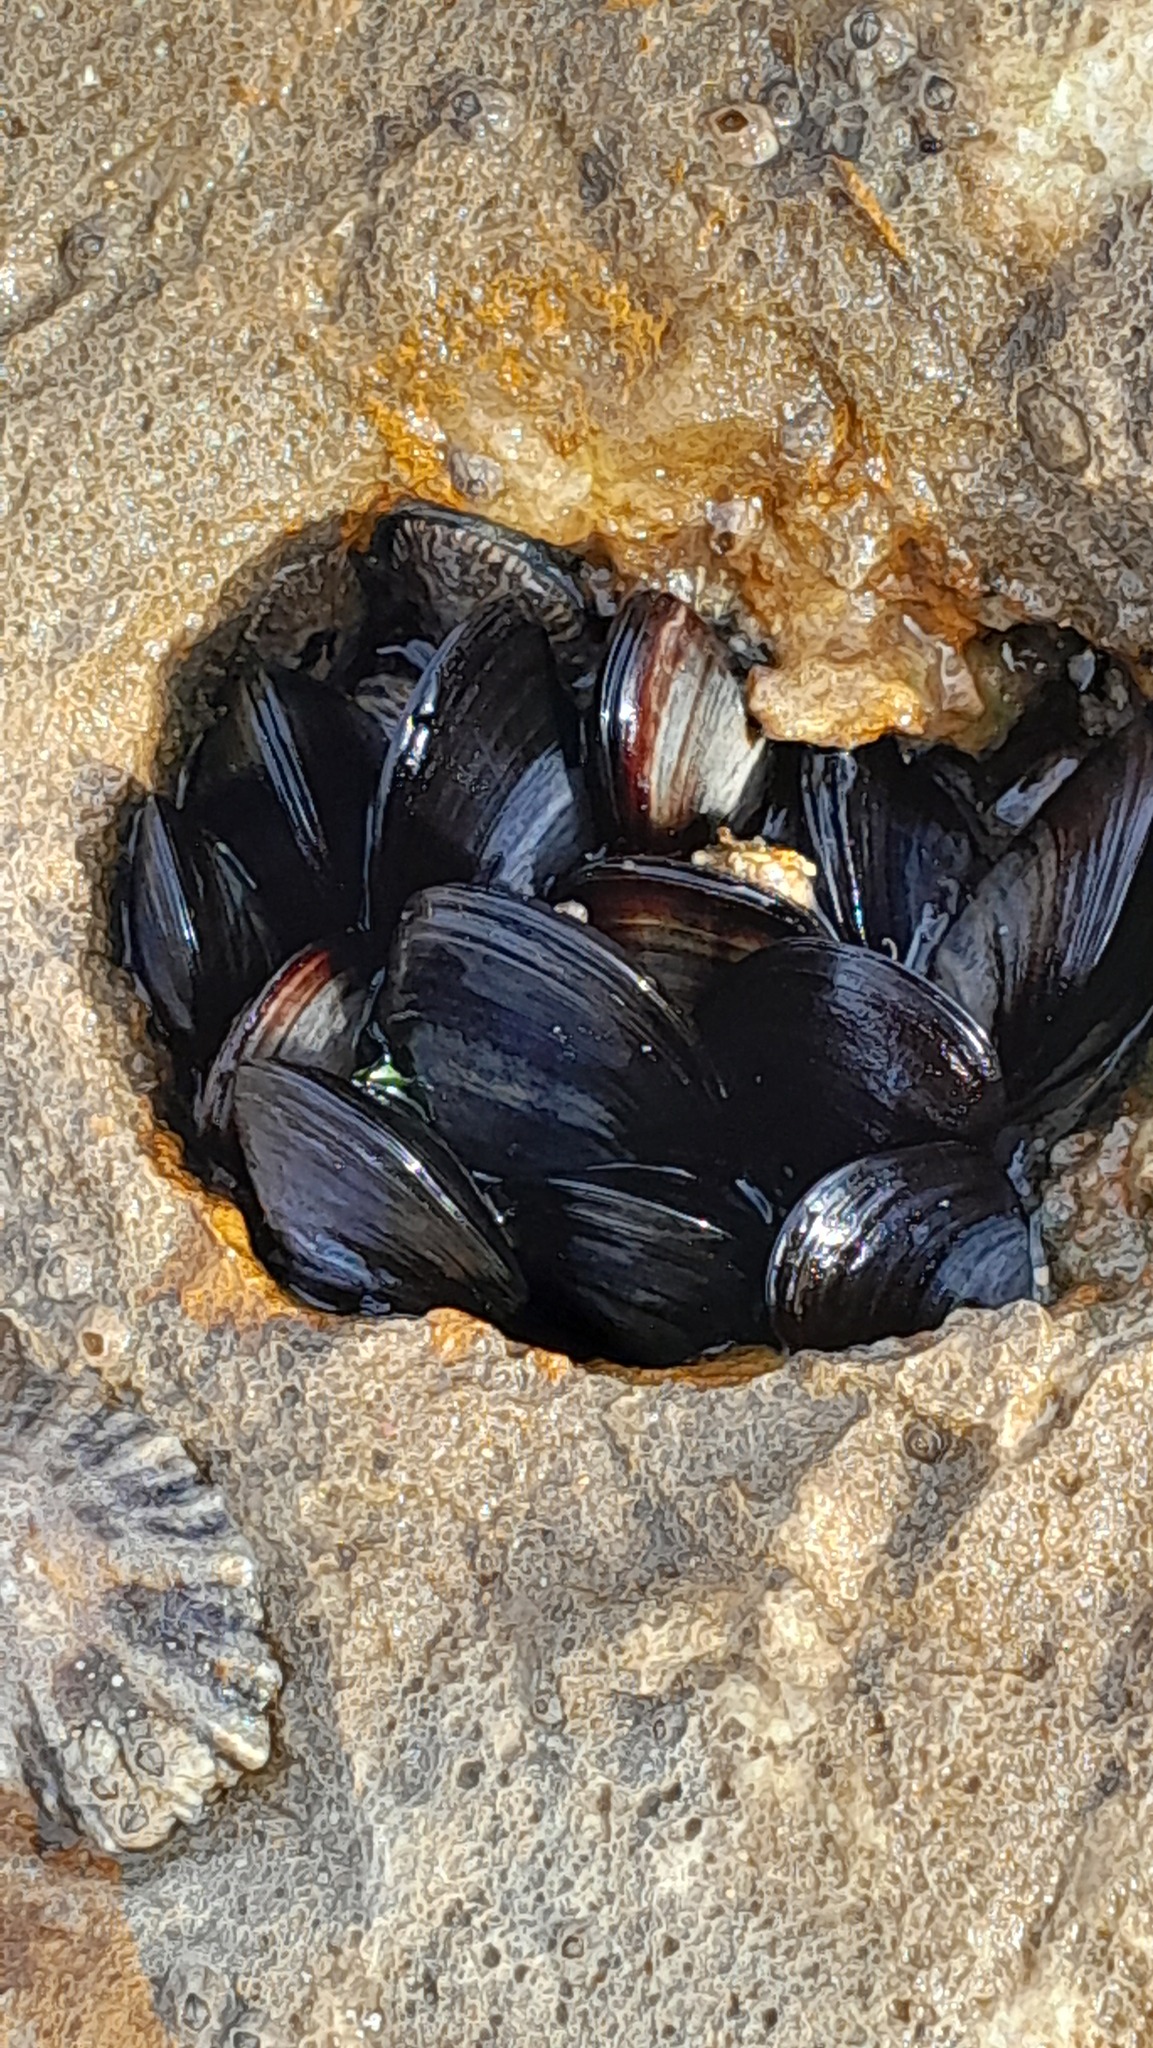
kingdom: Animalia
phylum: Mollusca
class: Bivalvia
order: Mytilida
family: Mytilidae
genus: Mytilus
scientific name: Mytilus
